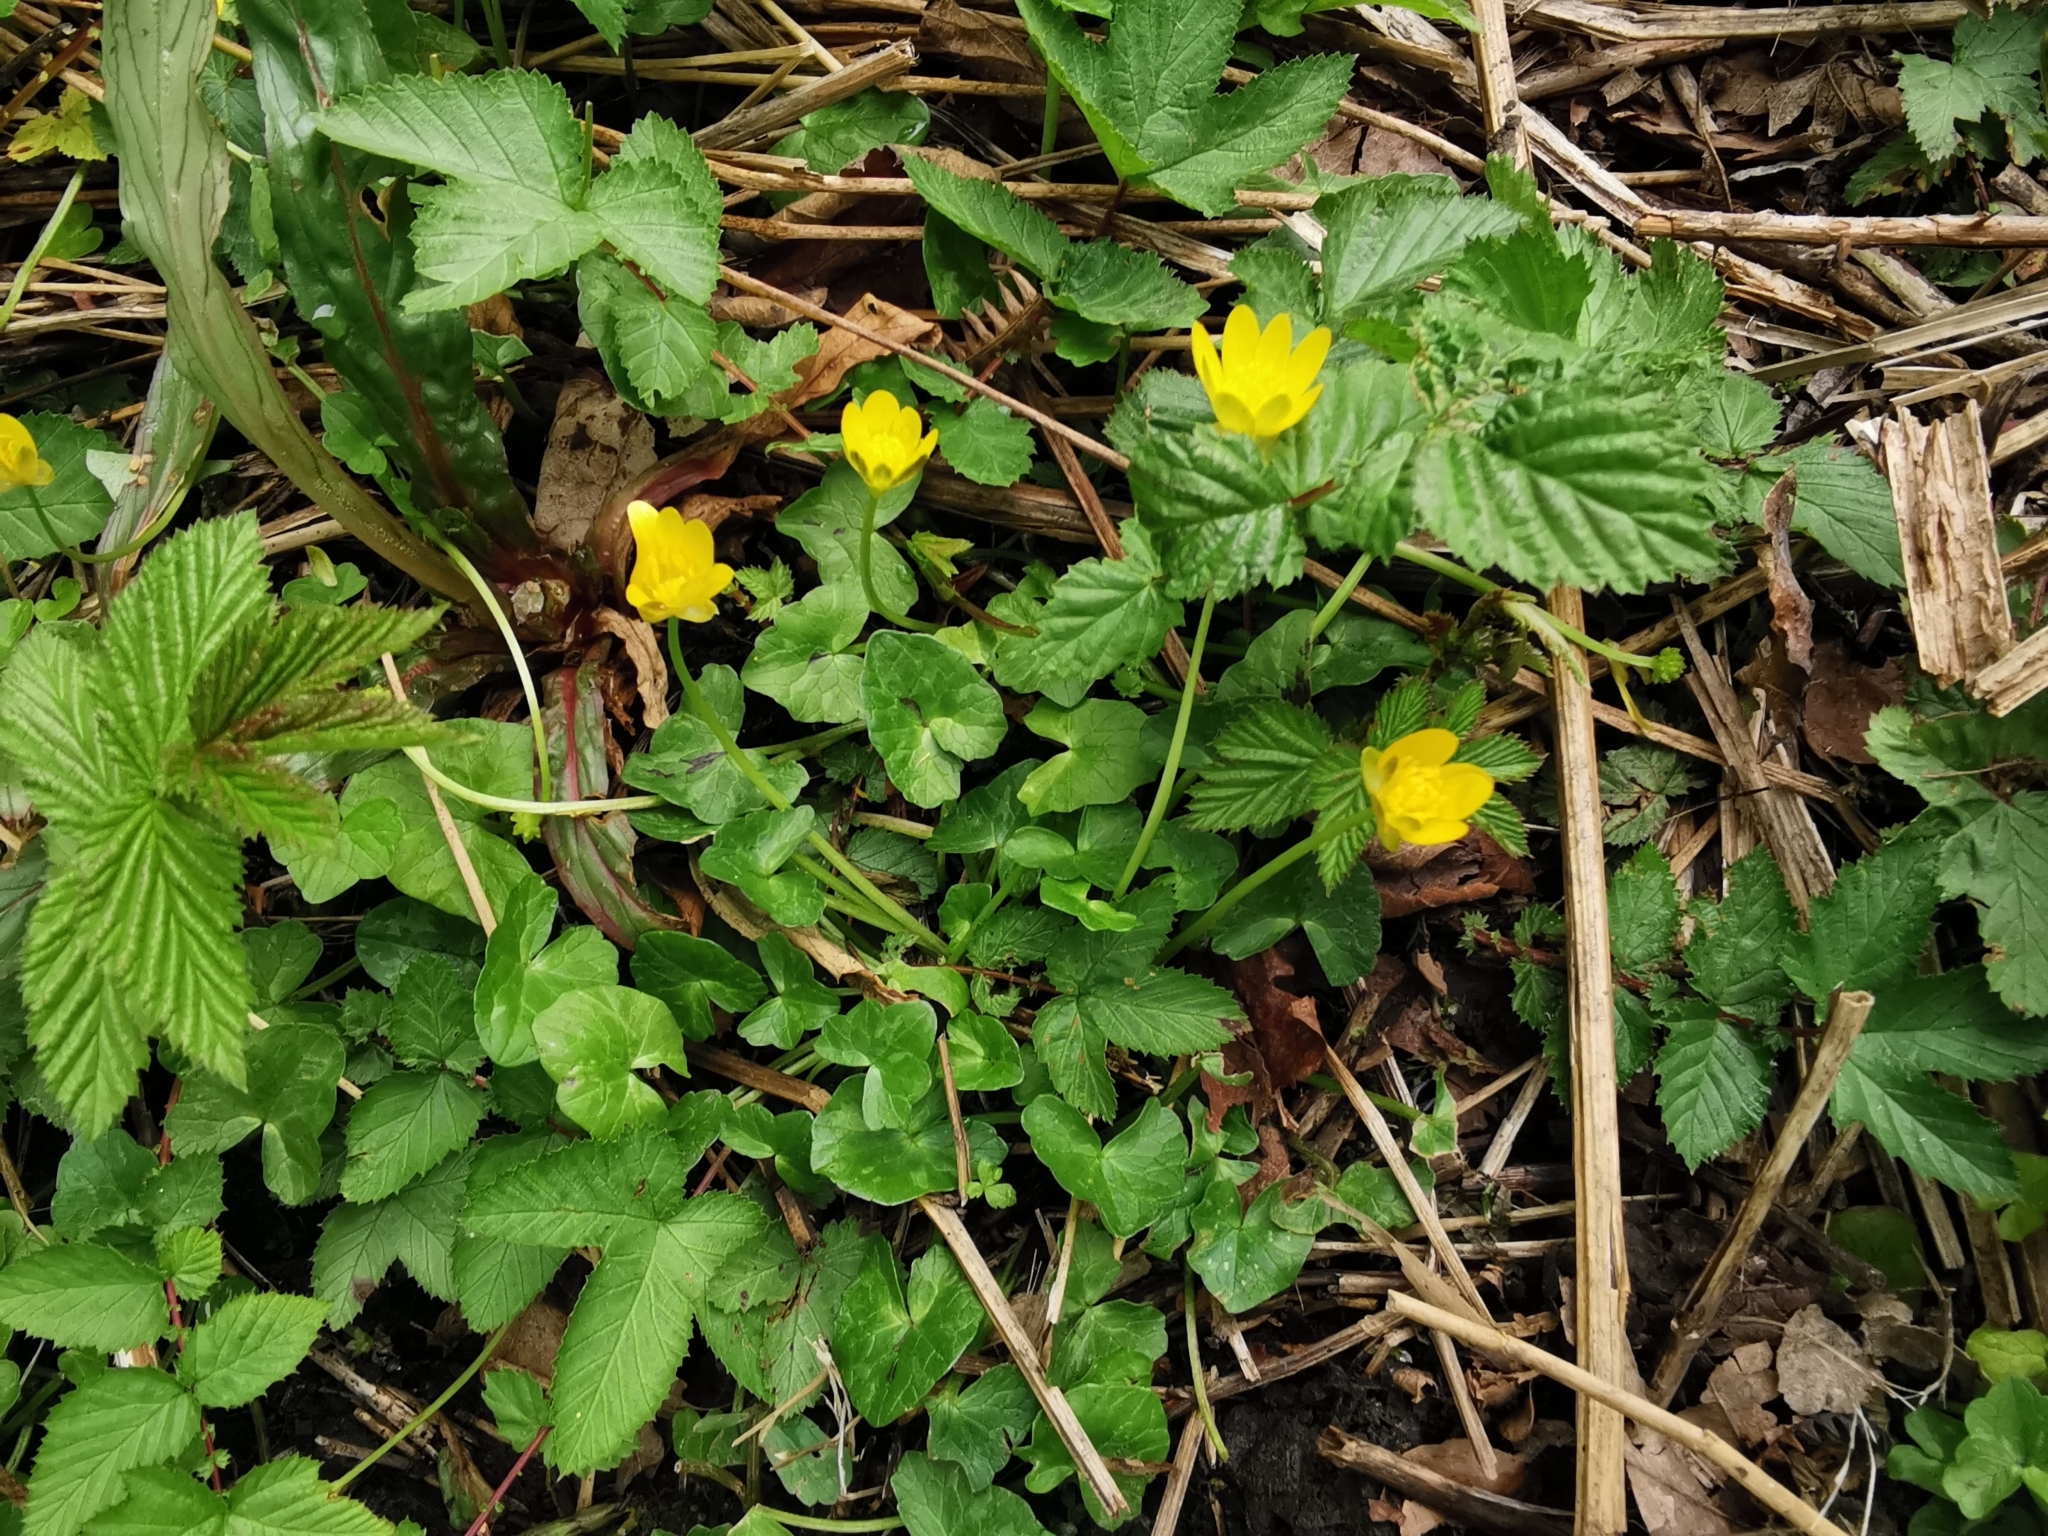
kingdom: Plantae
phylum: Tracheophyta
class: Magnoliopsida
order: Ranunculales
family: Ranunculaceae
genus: Ficaria
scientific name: Ficaria verna
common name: Lesser celandine
